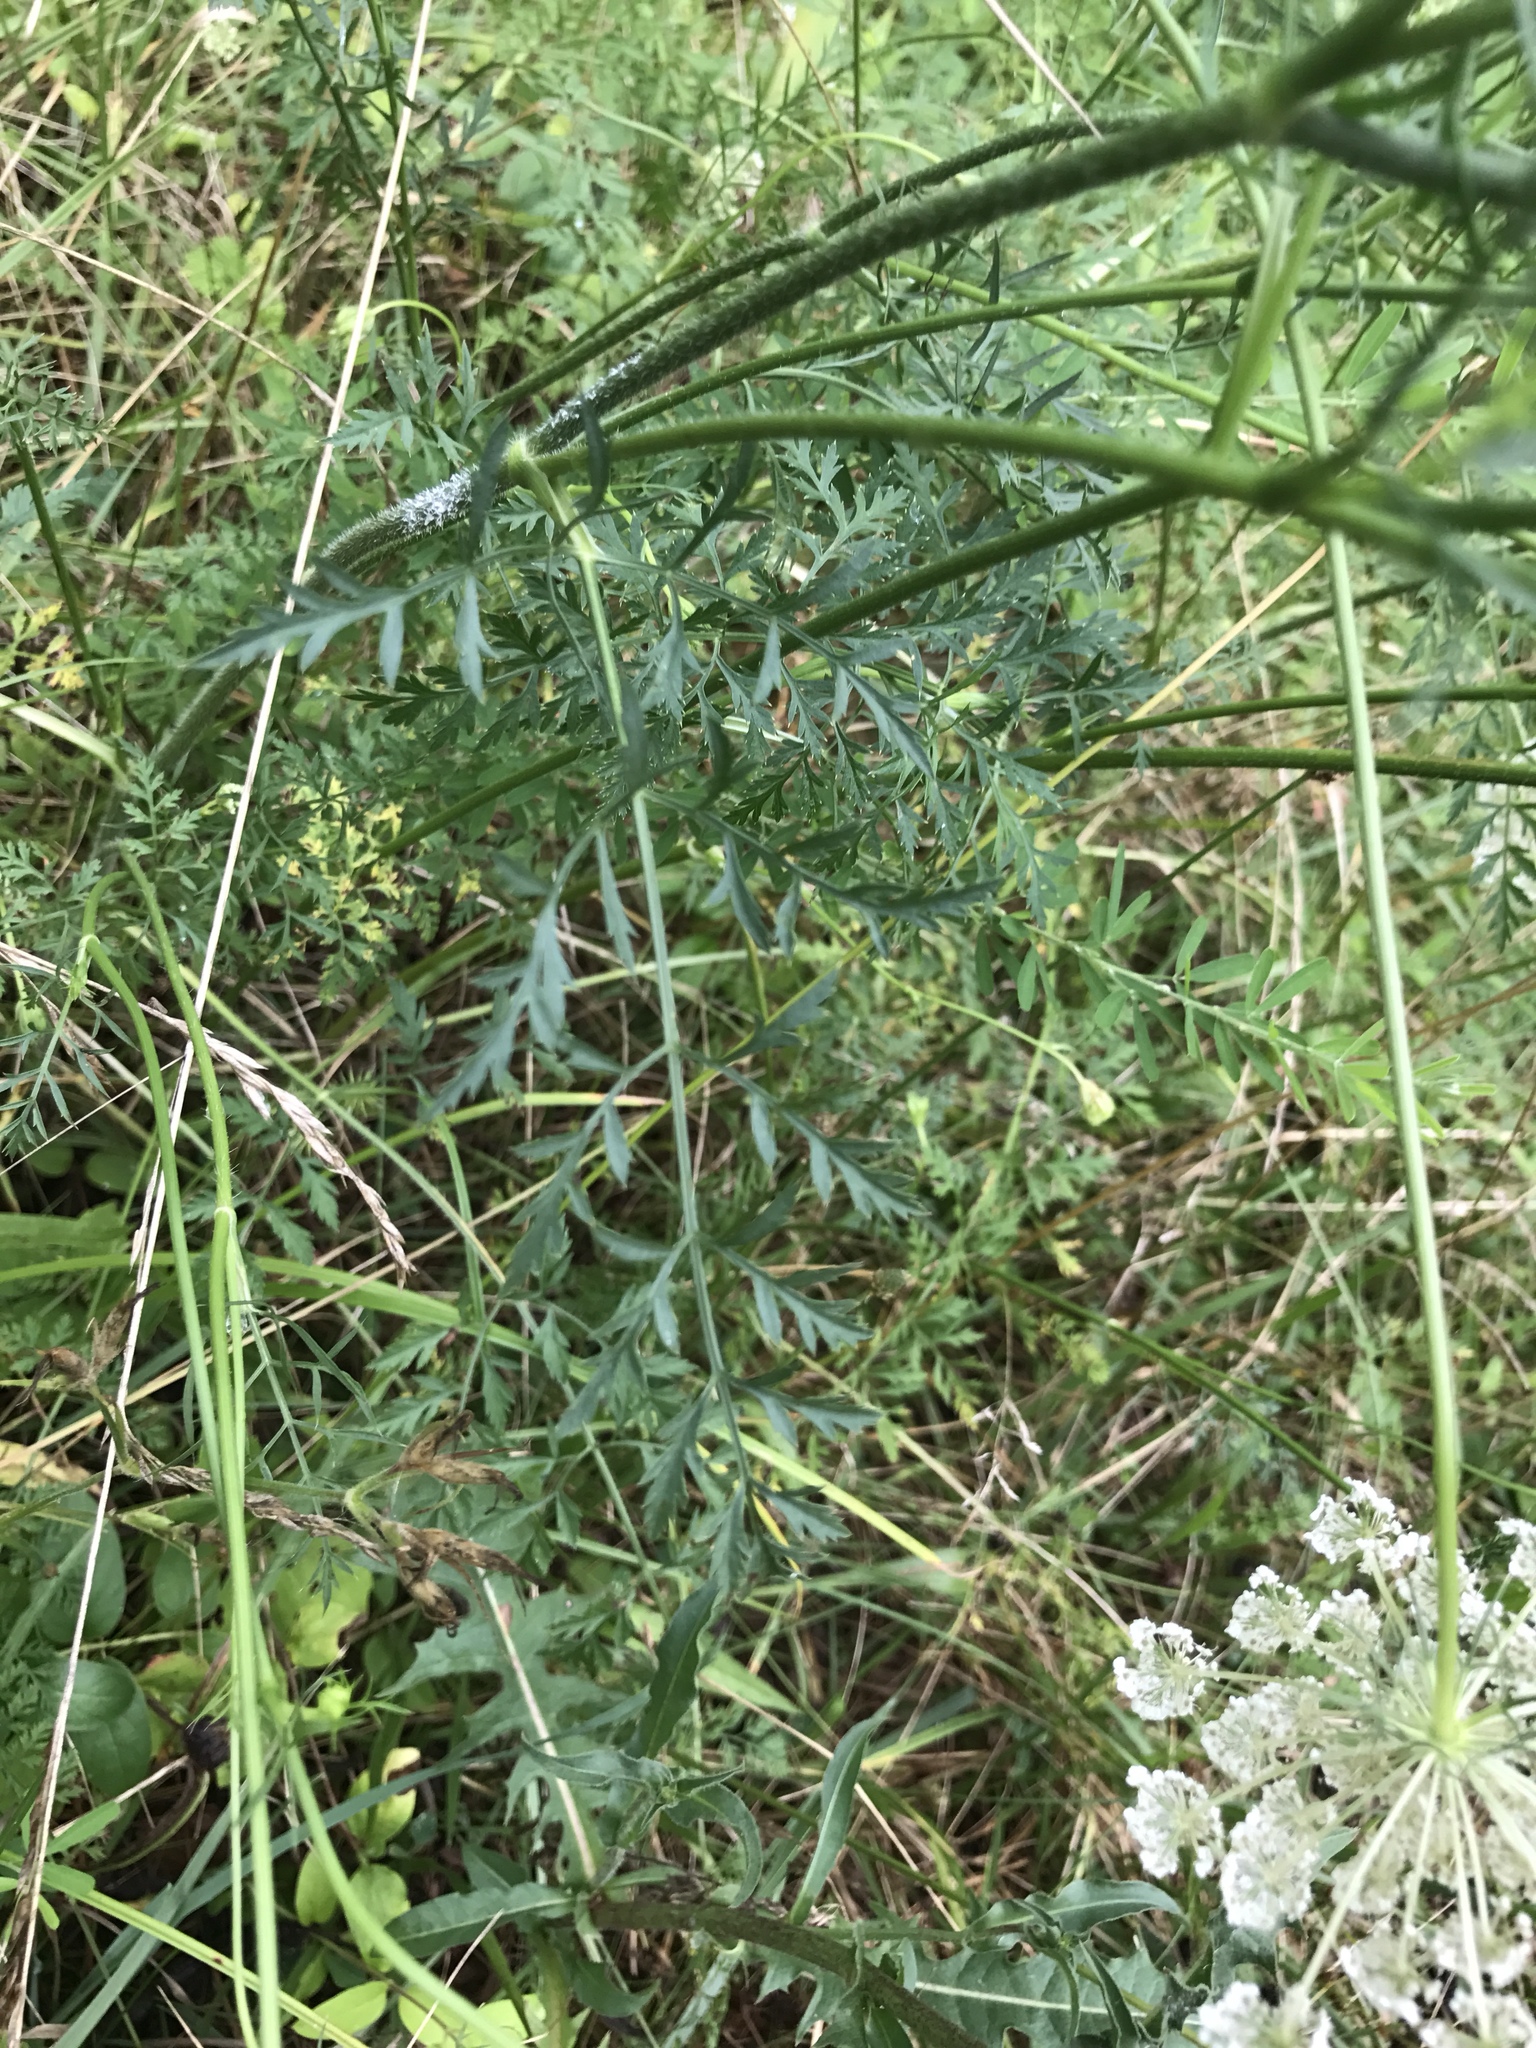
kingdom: Plantae
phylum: Tracheophyta
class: Magnoliopsida
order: Apiales
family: Apiaceae
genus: Daucus
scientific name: Daucus carota
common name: Wild carrot
